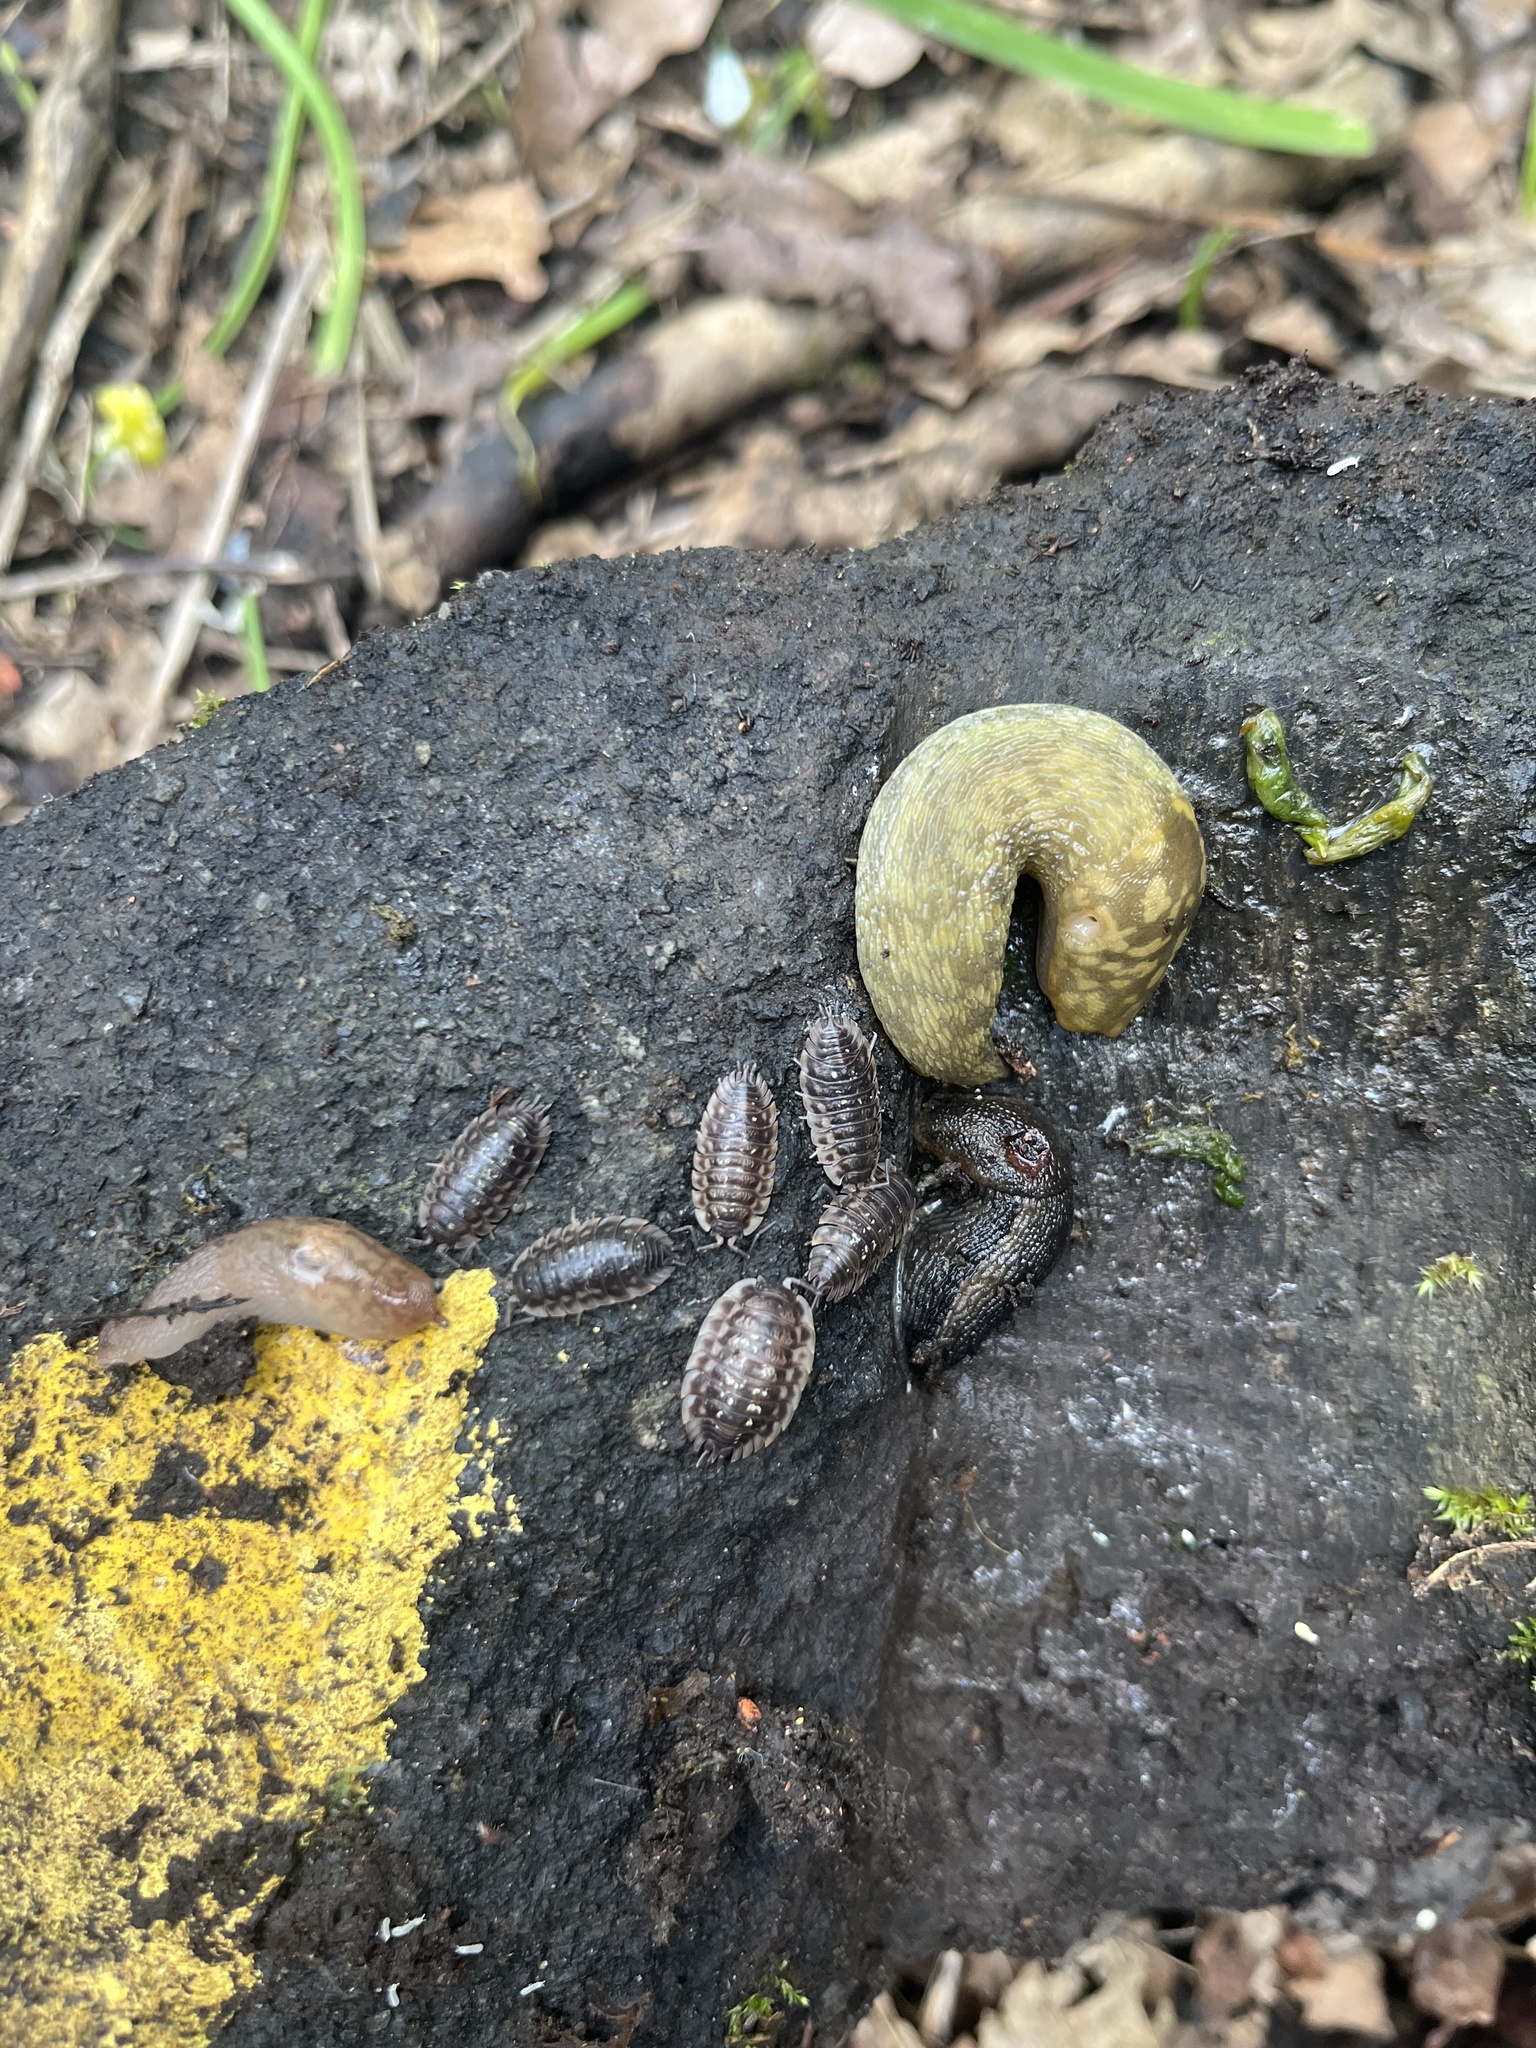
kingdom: Animalia
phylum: Arthropoda
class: Malacostraca
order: Isopoda
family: Oniscidae
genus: Oniscus
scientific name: Oniscus asellus
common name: Common shiny woodlouse
